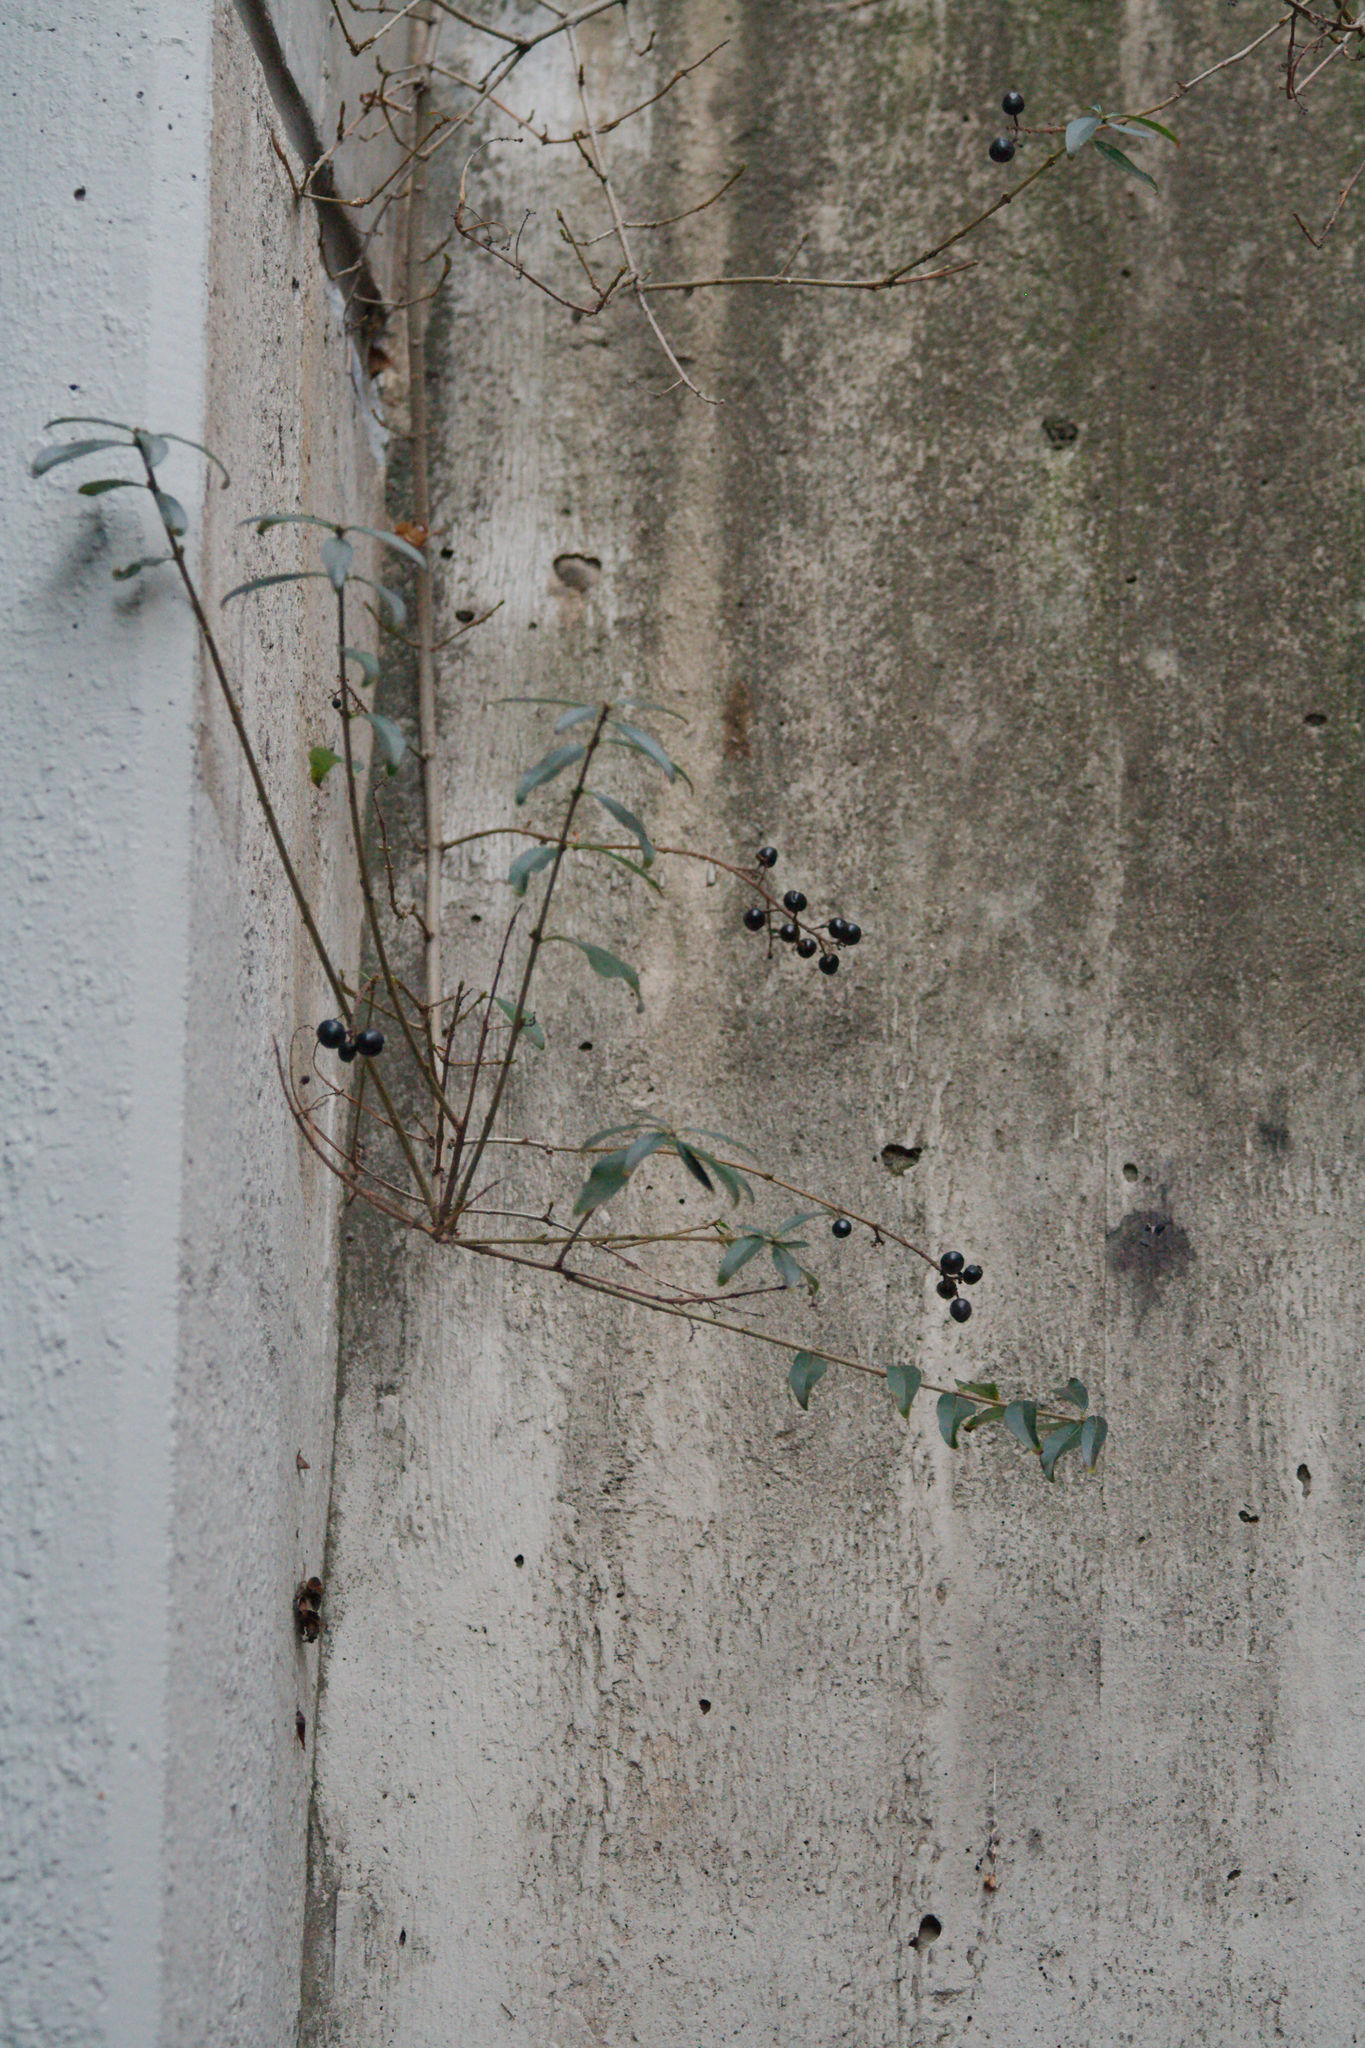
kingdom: Plantae
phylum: Tracheophyta
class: Magnoliopsida
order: Lamiales
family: Oleaceae
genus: Ligustrum
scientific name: Ligustrum vulgare
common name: Wild privet
